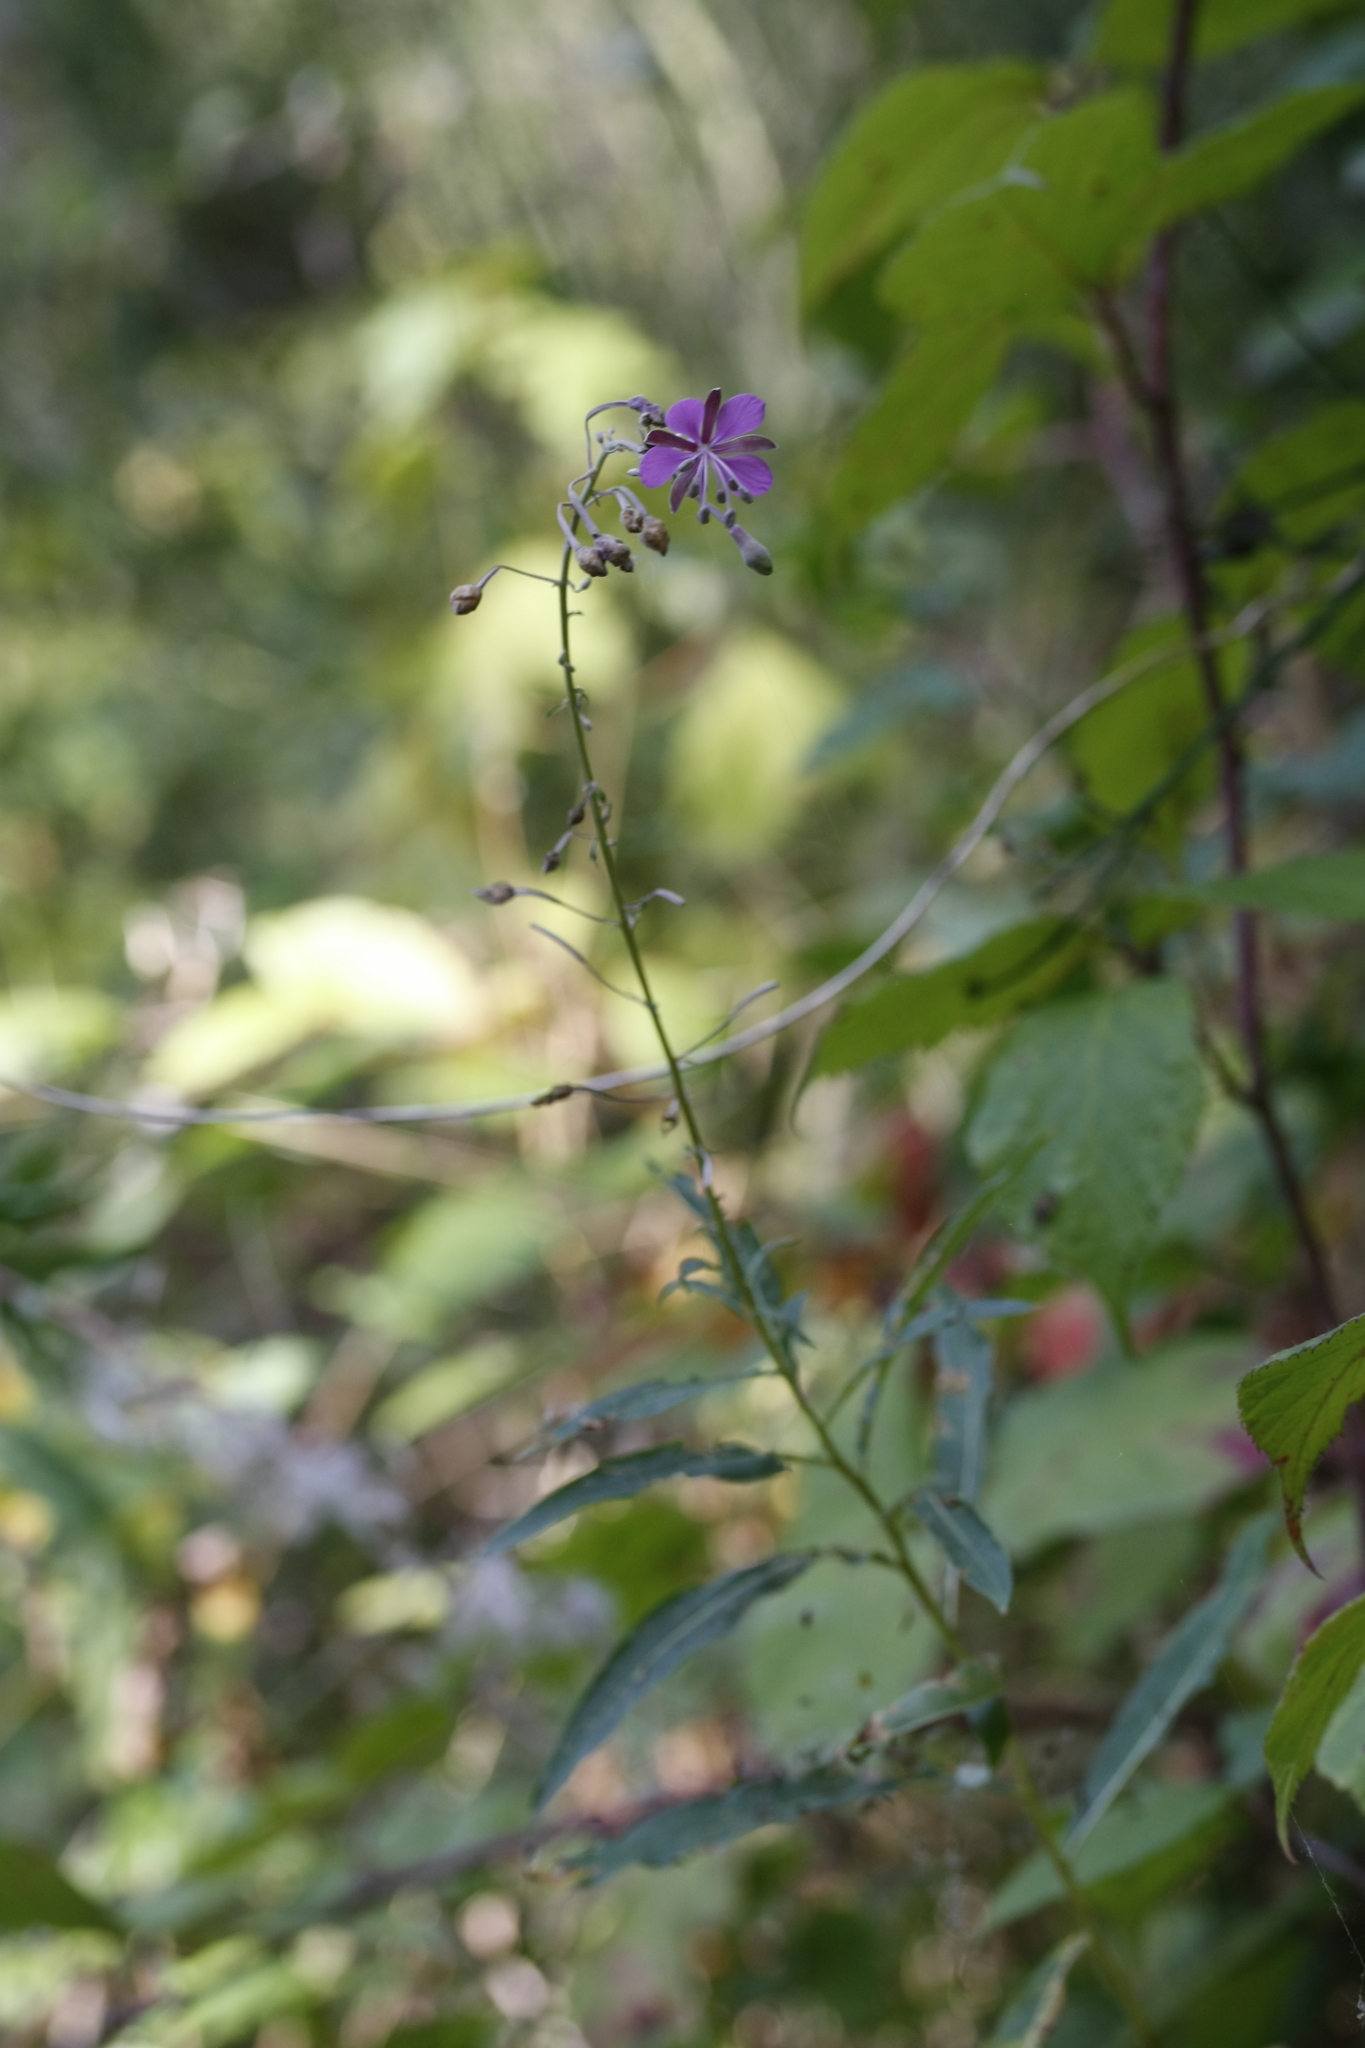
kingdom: Plantae
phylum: Tracheophyta
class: Magnoliopsida
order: Myrtales
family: Onagraceae
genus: Chamaenerion
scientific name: Chamaenerion angustifolium
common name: Fireweed
